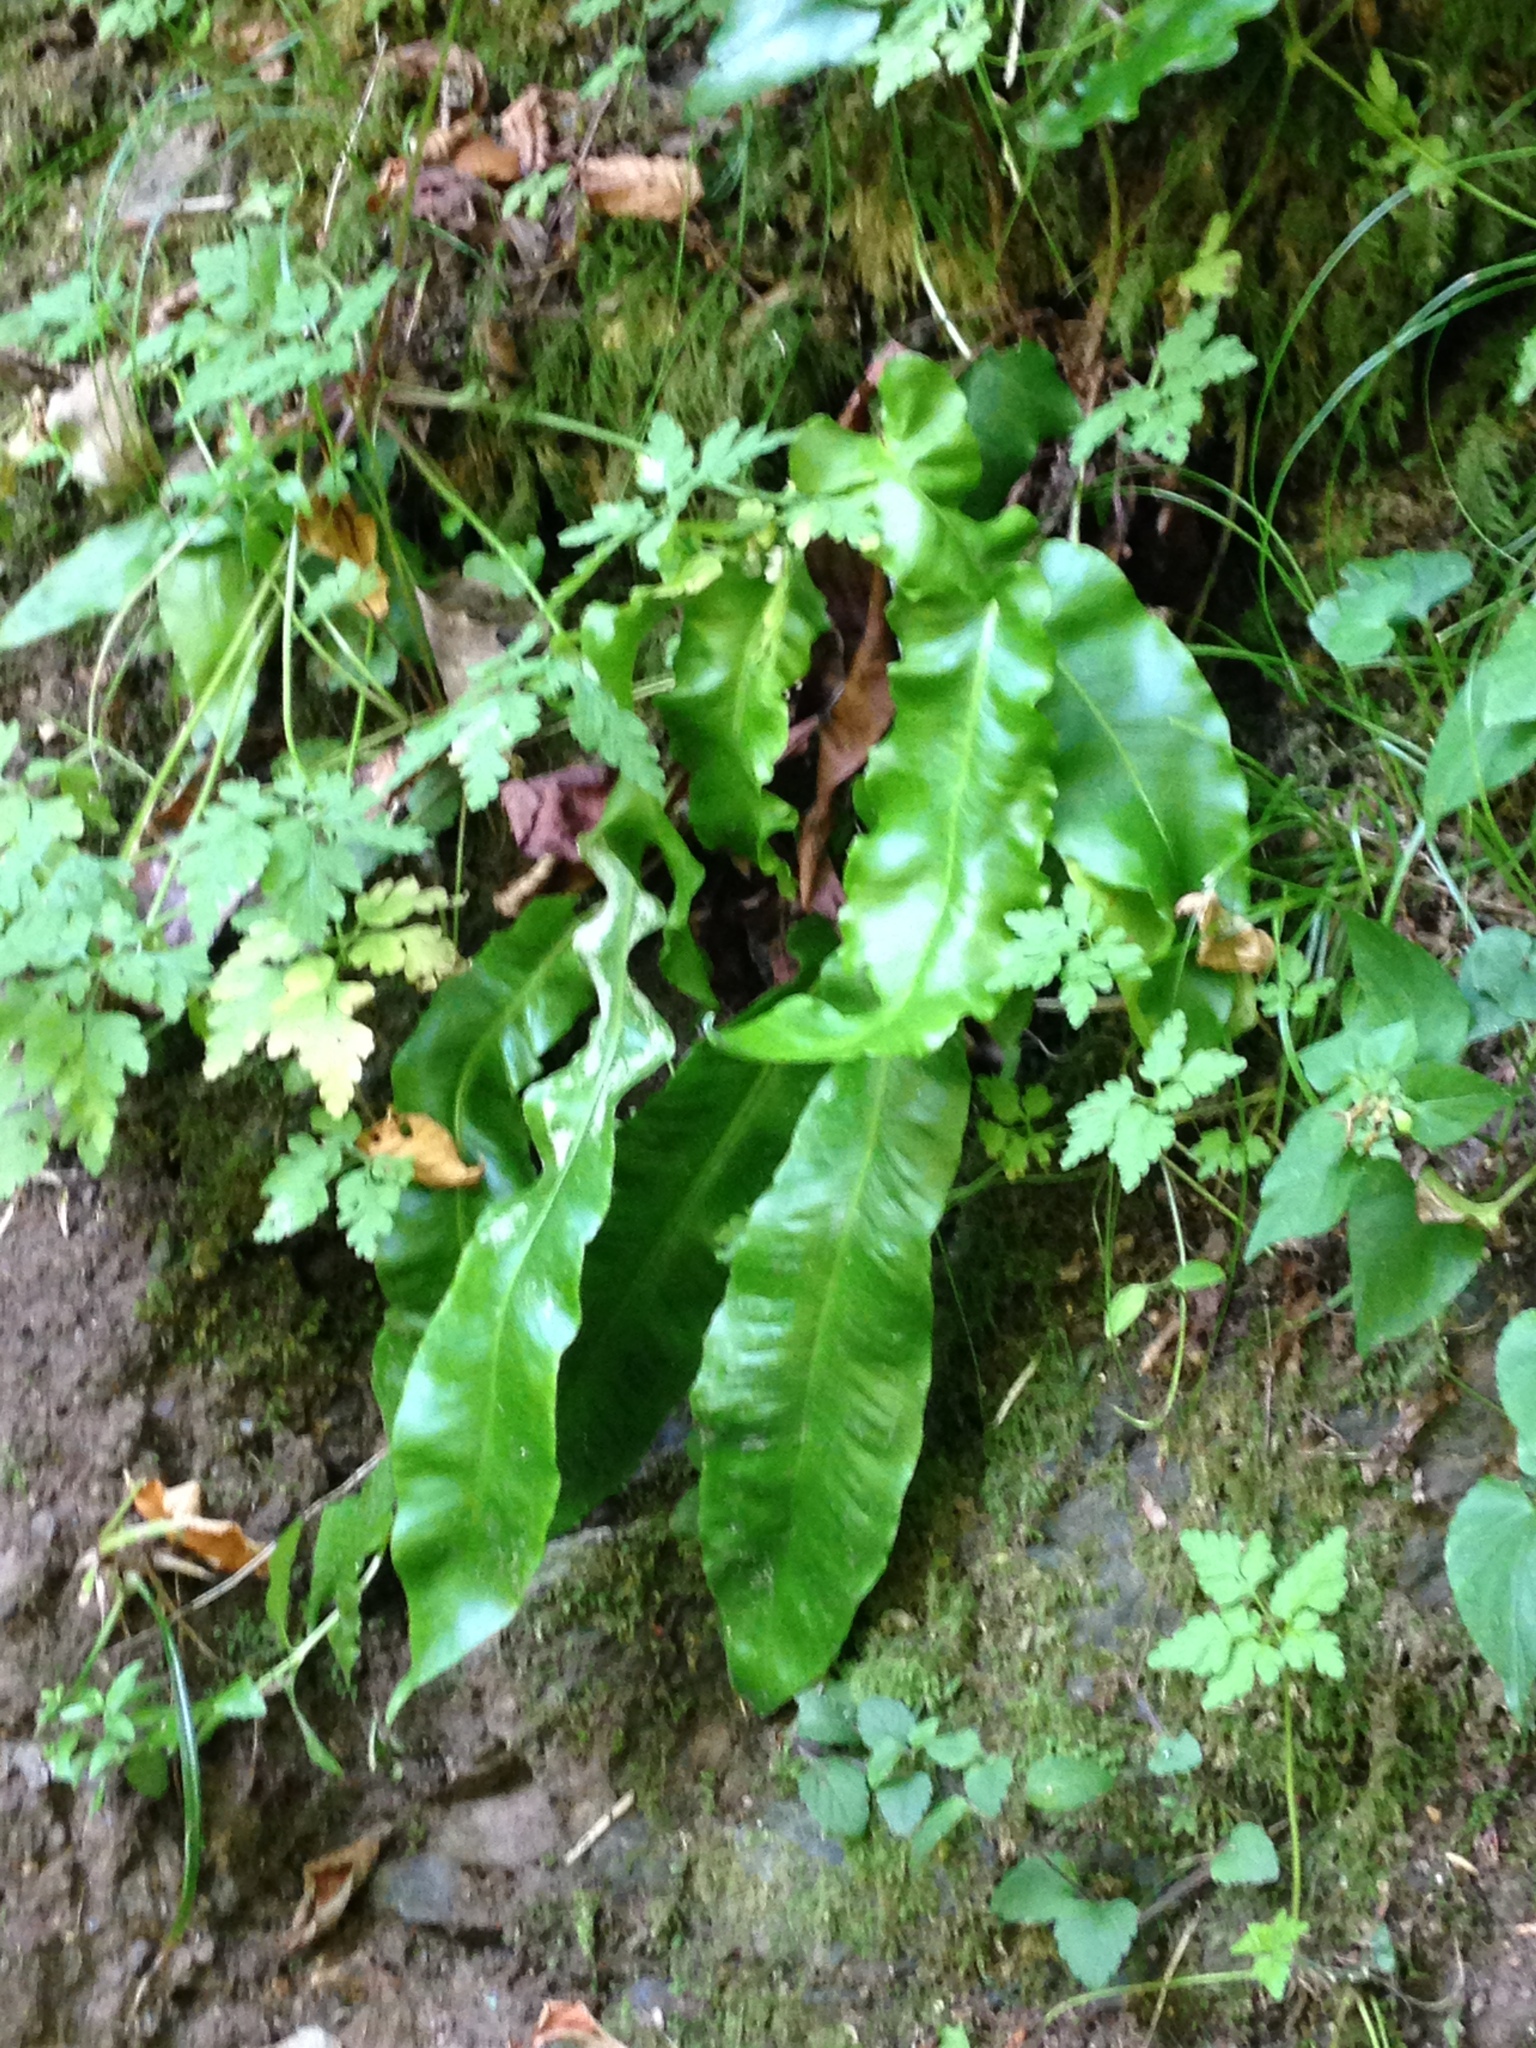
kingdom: Plantae
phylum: Tracheophyta
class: Polypodiopsida
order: Polypodiales
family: Aspleniaceae
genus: Asplenium
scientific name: Asplenium scolopendrium
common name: Hart's-tongue fern
